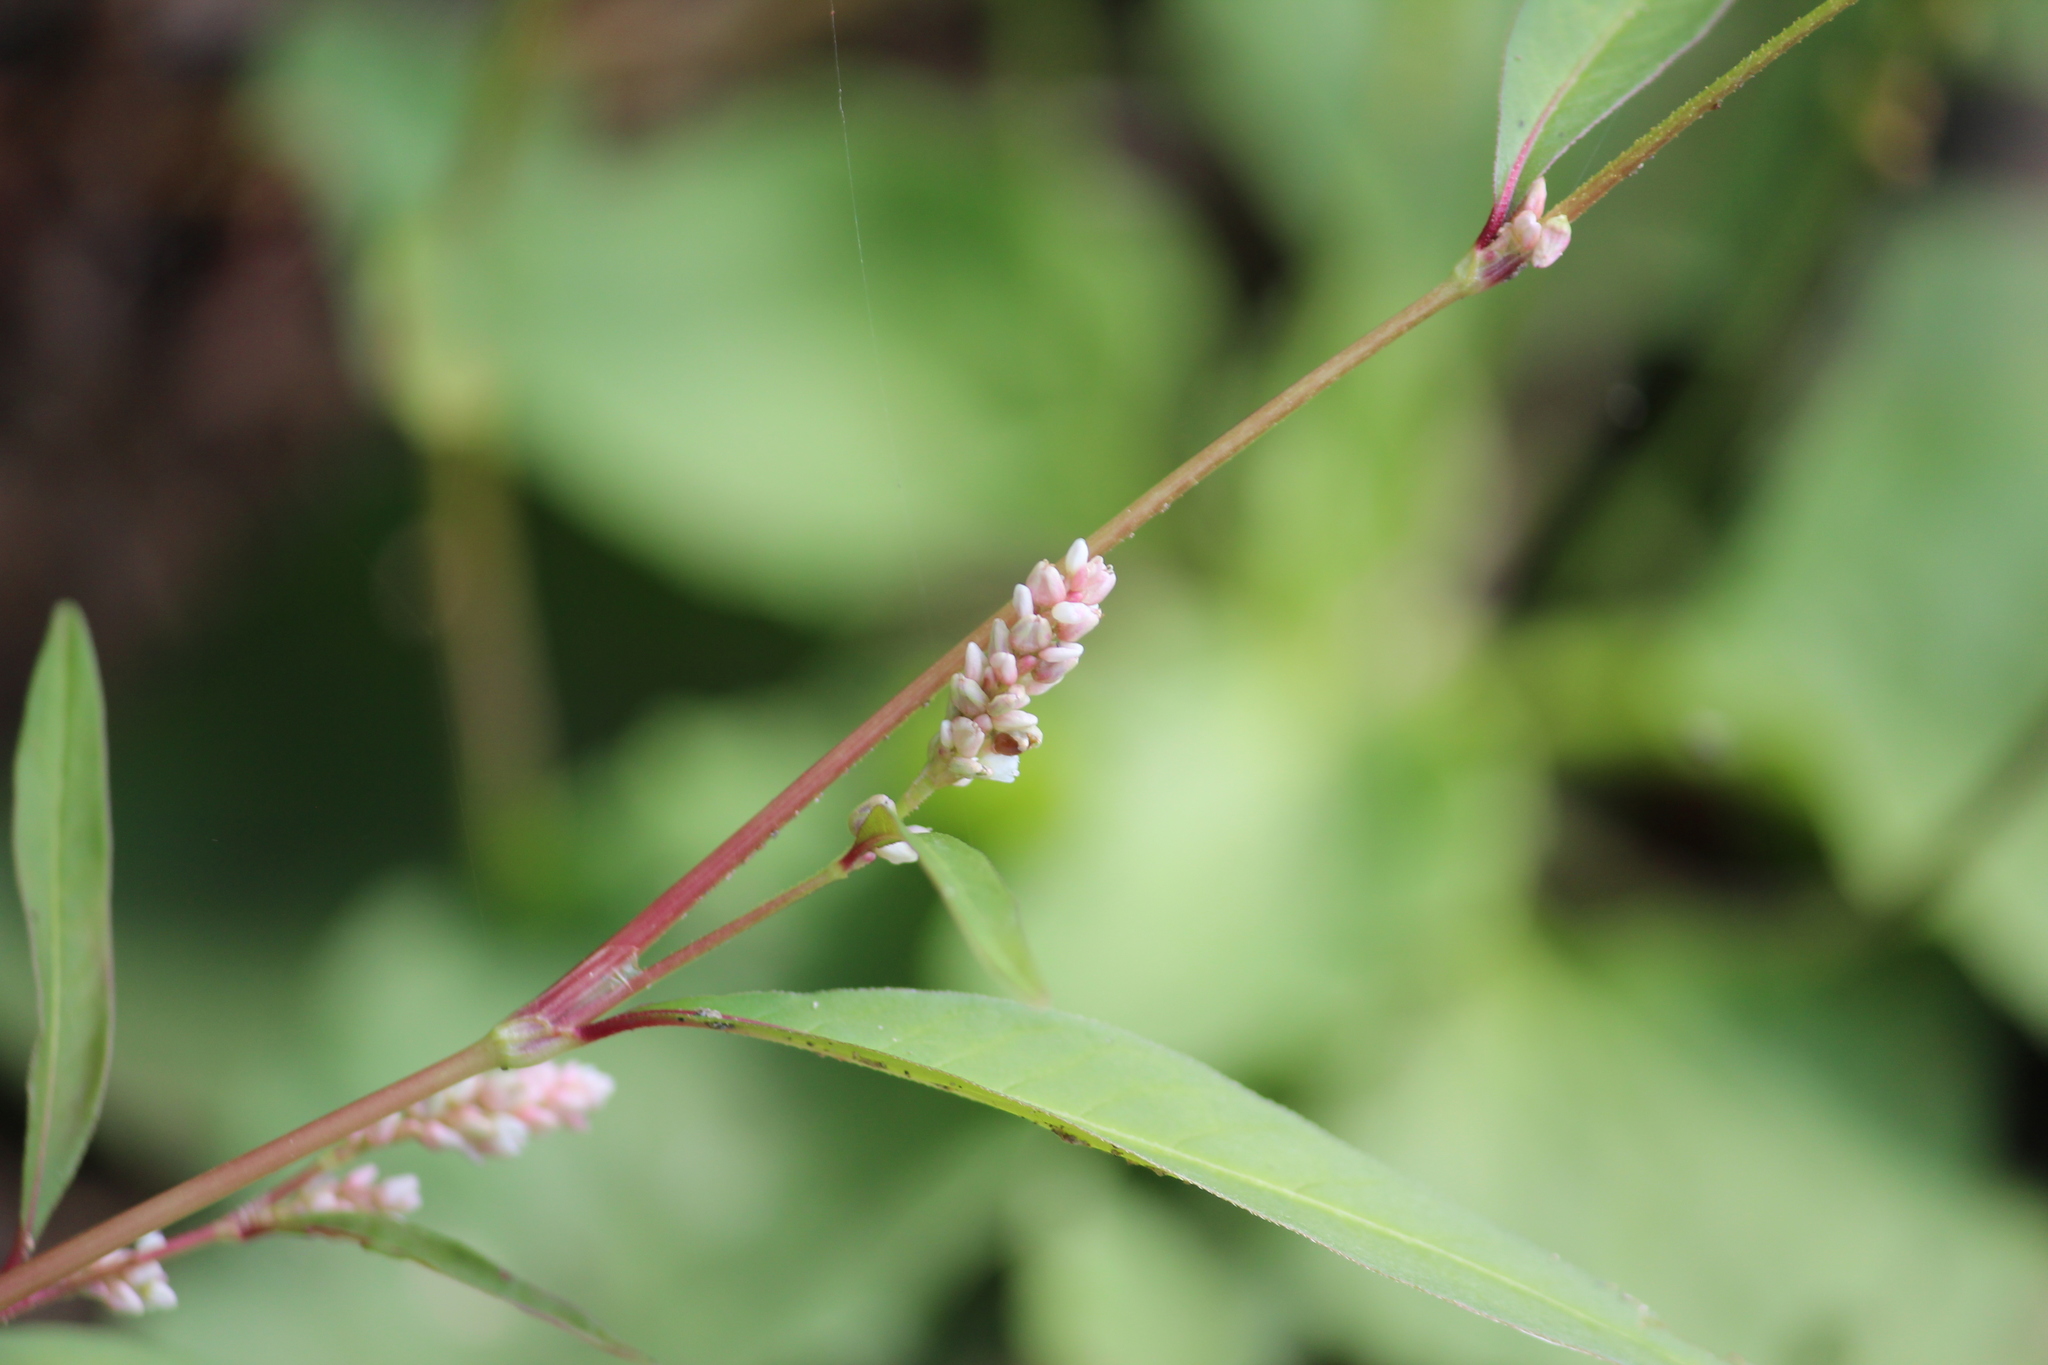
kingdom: Plantae
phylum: Tracheophyta
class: Magnoliopsida
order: Caryophyllales
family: Polygonaceae
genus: Persicaria
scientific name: Persicaria lapathifolia
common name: Curlytop knotweed
